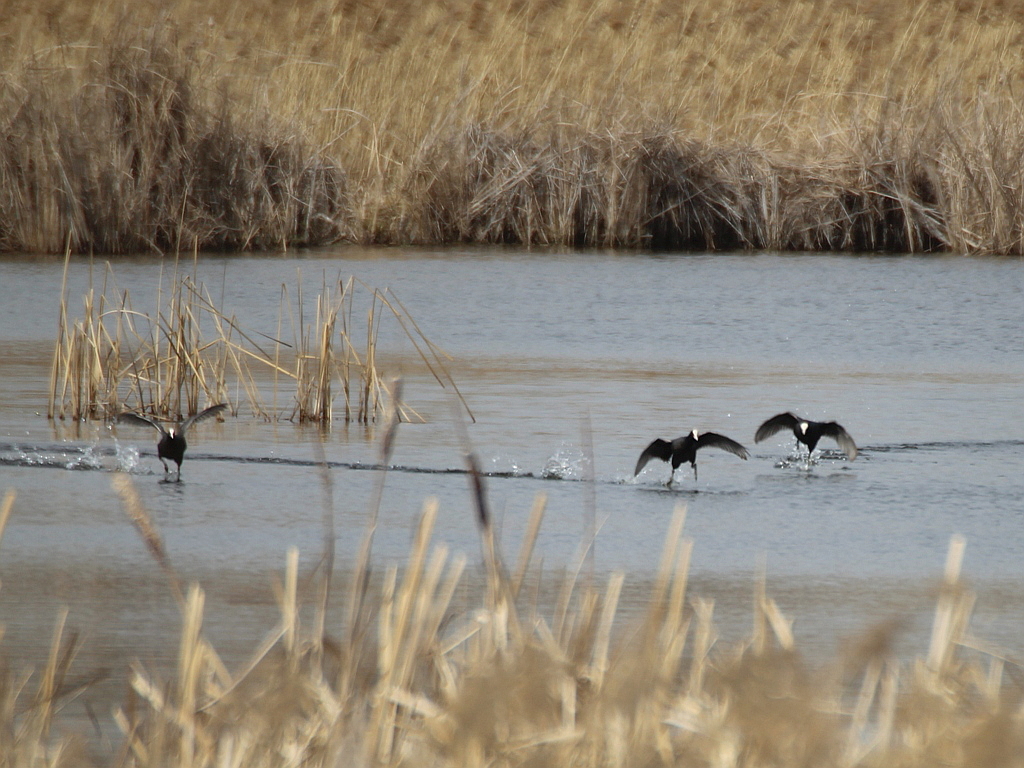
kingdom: Animalia
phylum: Chordata
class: Aves
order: Gruiformes
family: Rallidae
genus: Fulica
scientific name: Fulica atra
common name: Eurasian coot
